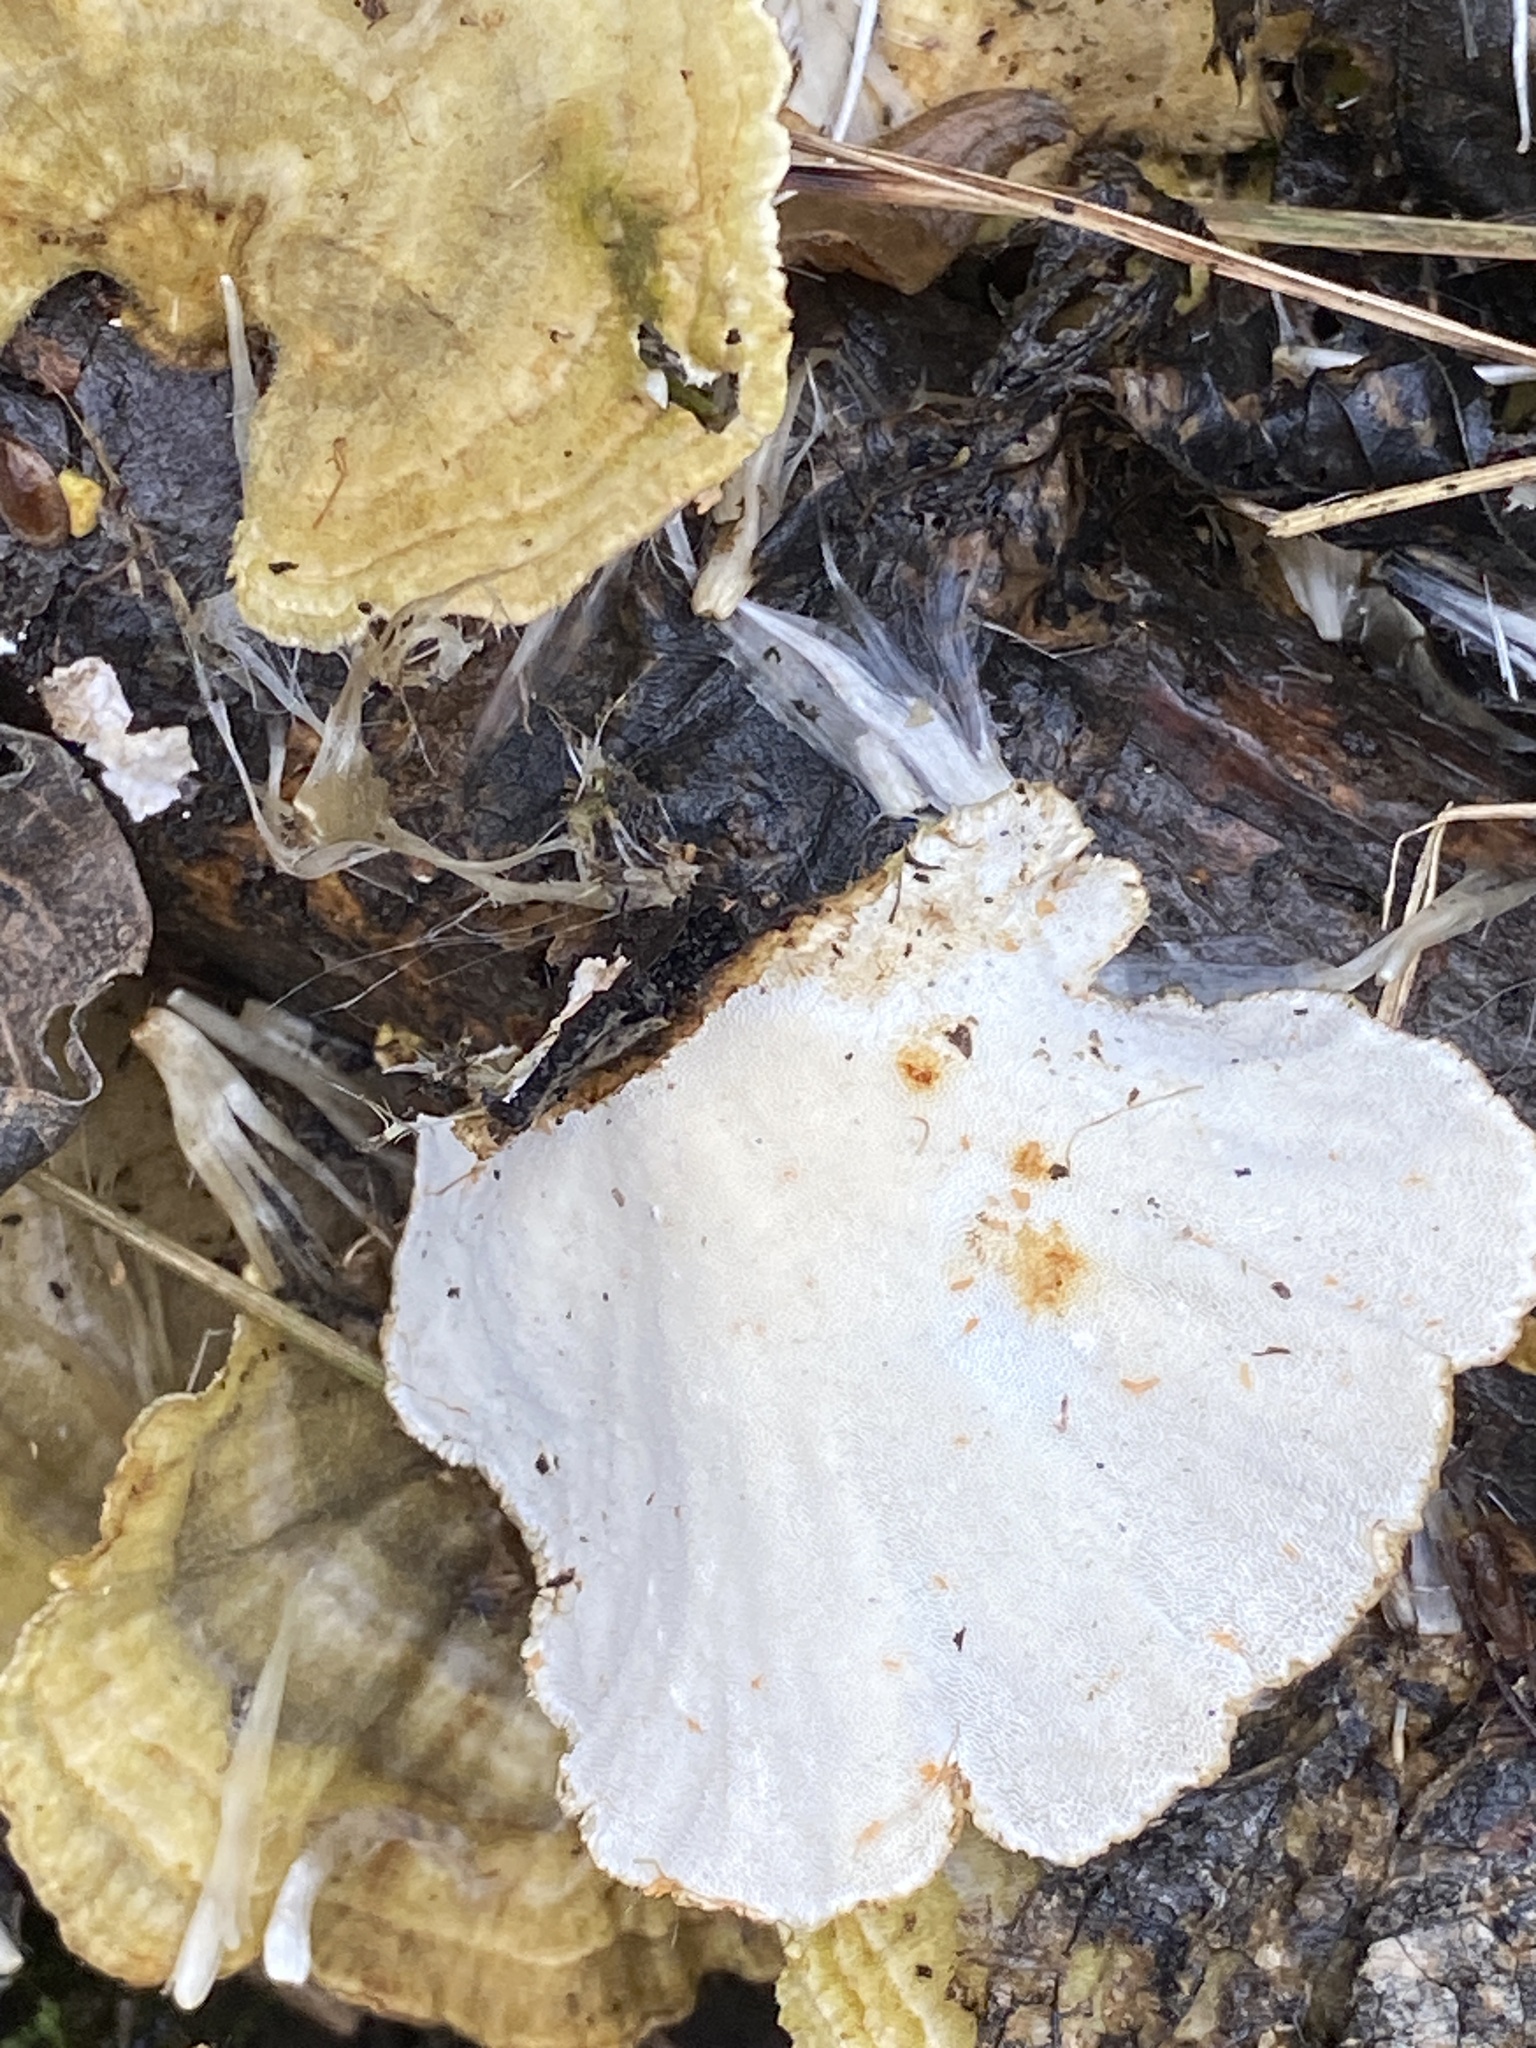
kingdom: Fungi
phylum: Basidiomycota
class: Agaricomycetes
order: Polyporales
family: Polyporaceae
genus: Trametes
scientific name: Trametes versicolor
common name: Turkeytail
